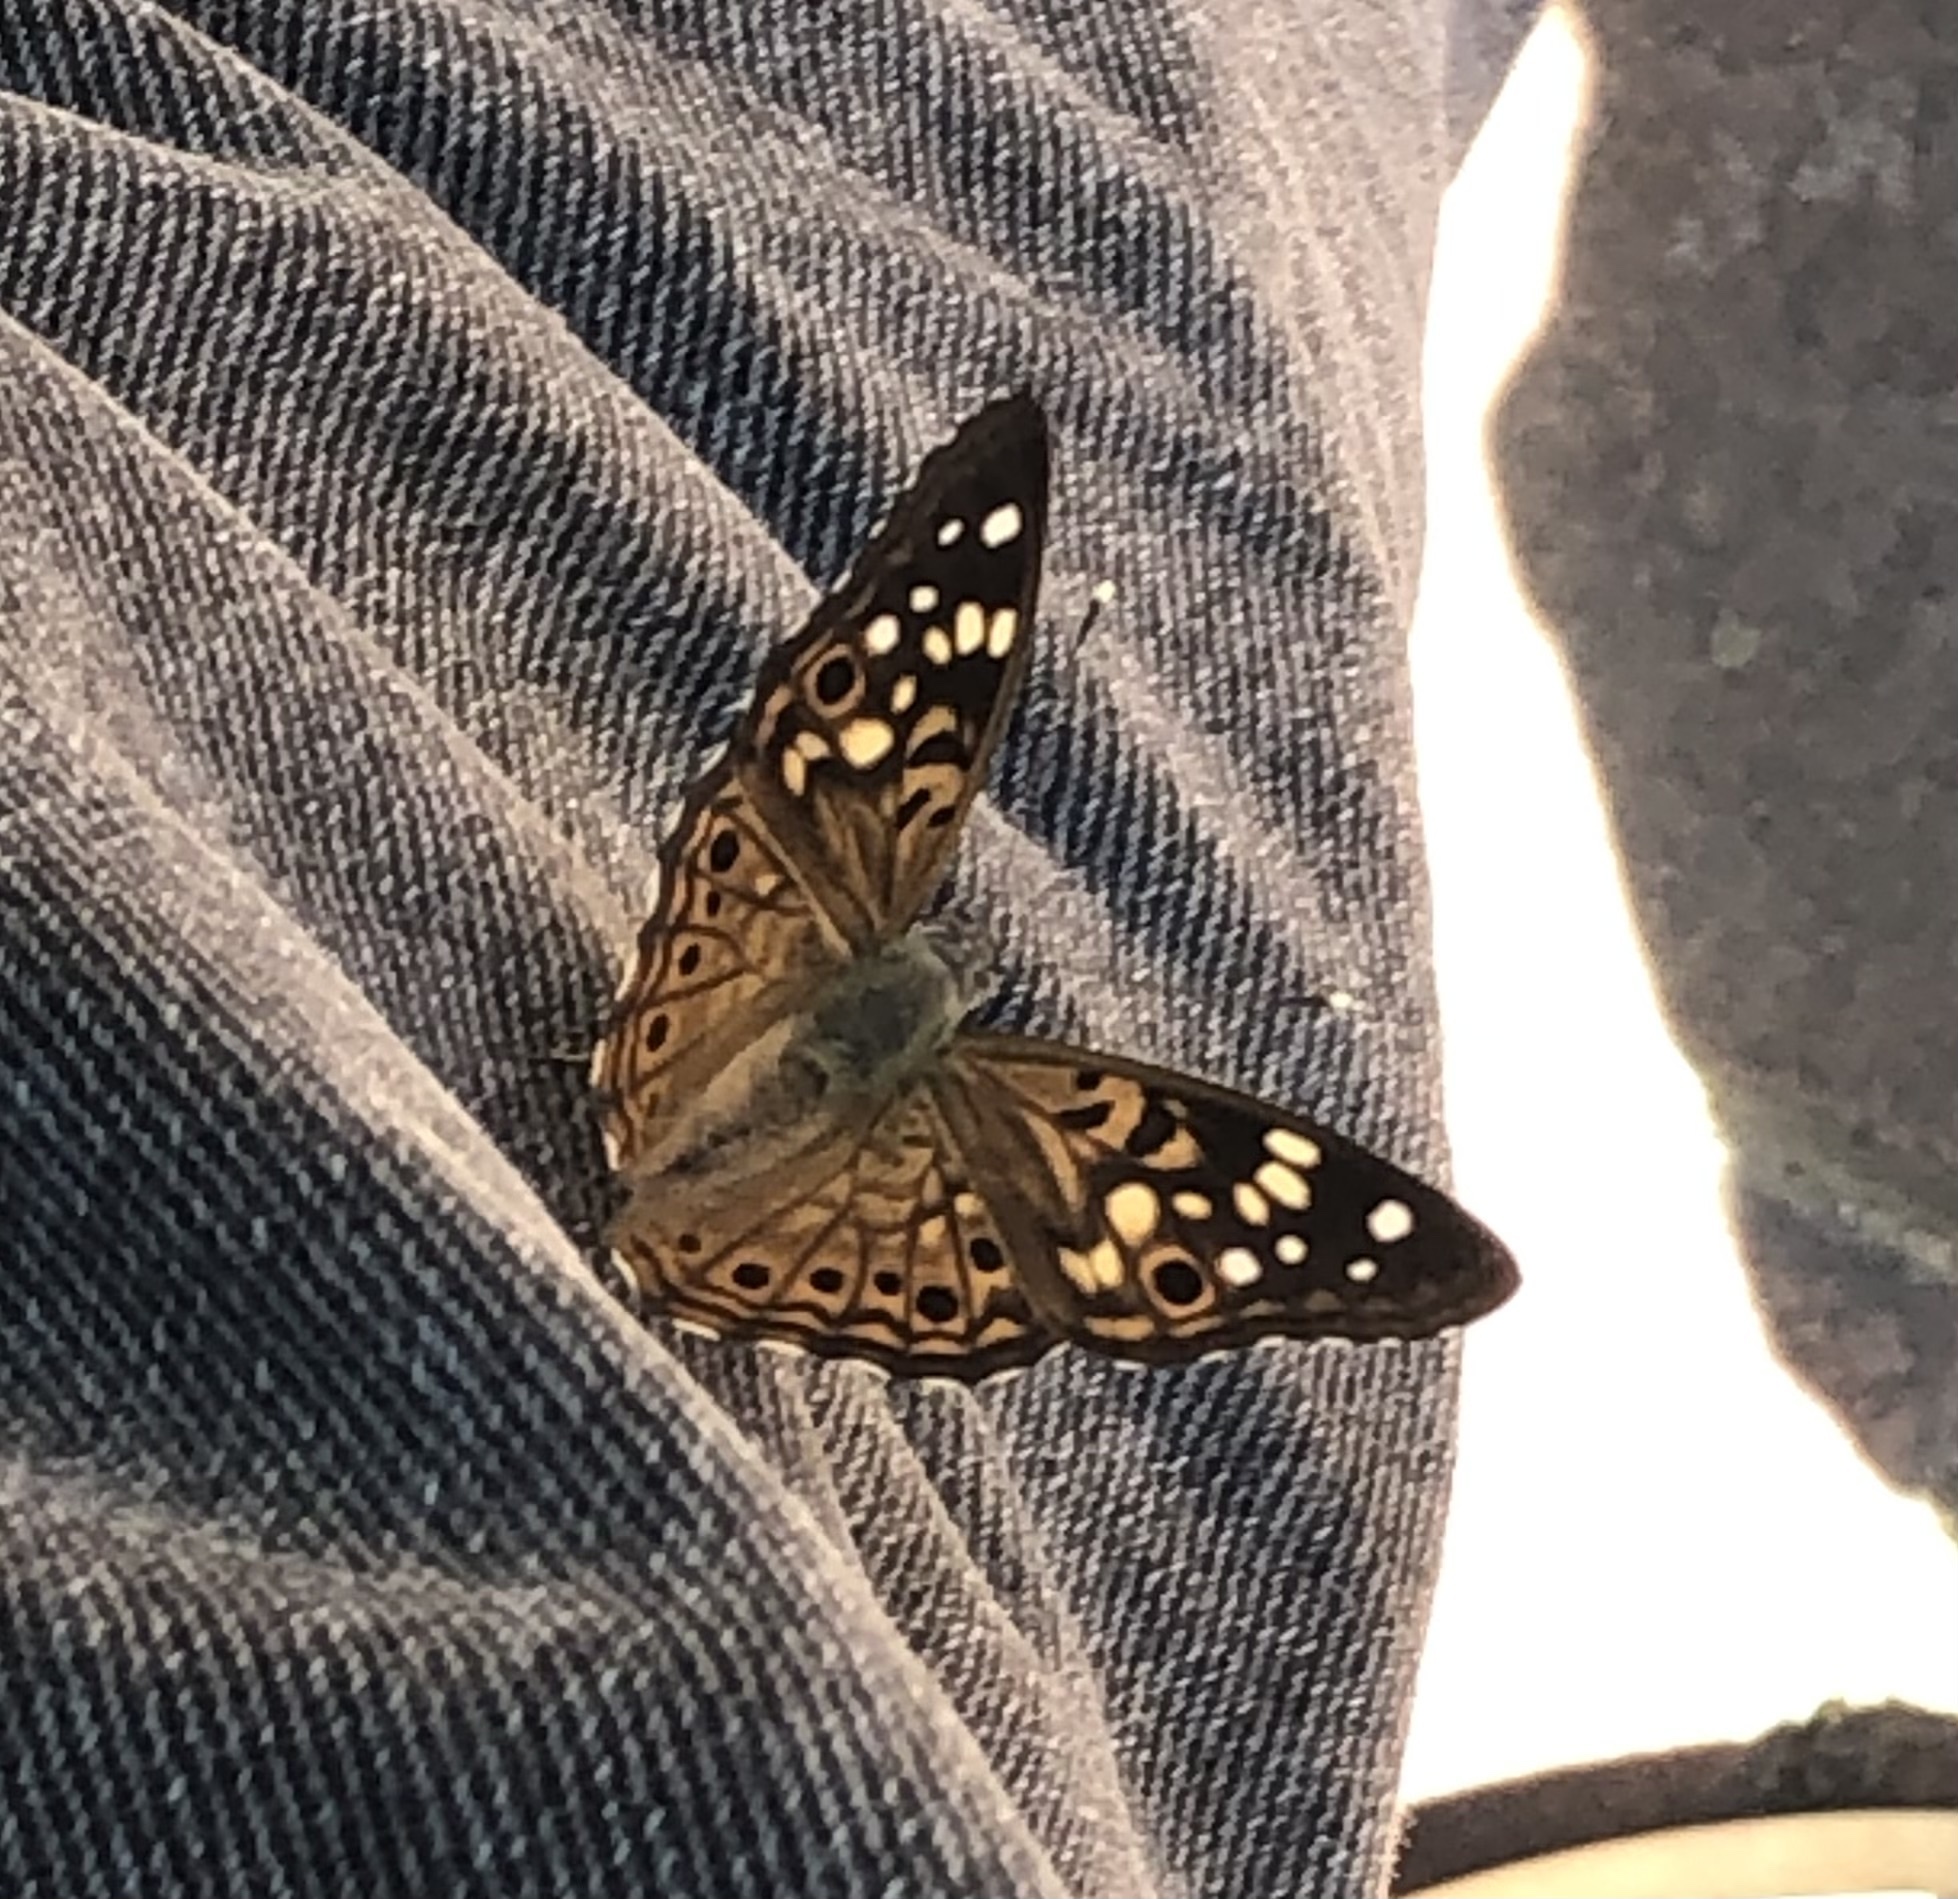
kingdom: Animalia
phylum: Arthropoda
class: Insecta
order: Lepidoptera
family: Nymphalidae
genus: Asterocampa
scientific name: Asterocampa celtis
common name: Hackberry emperor
